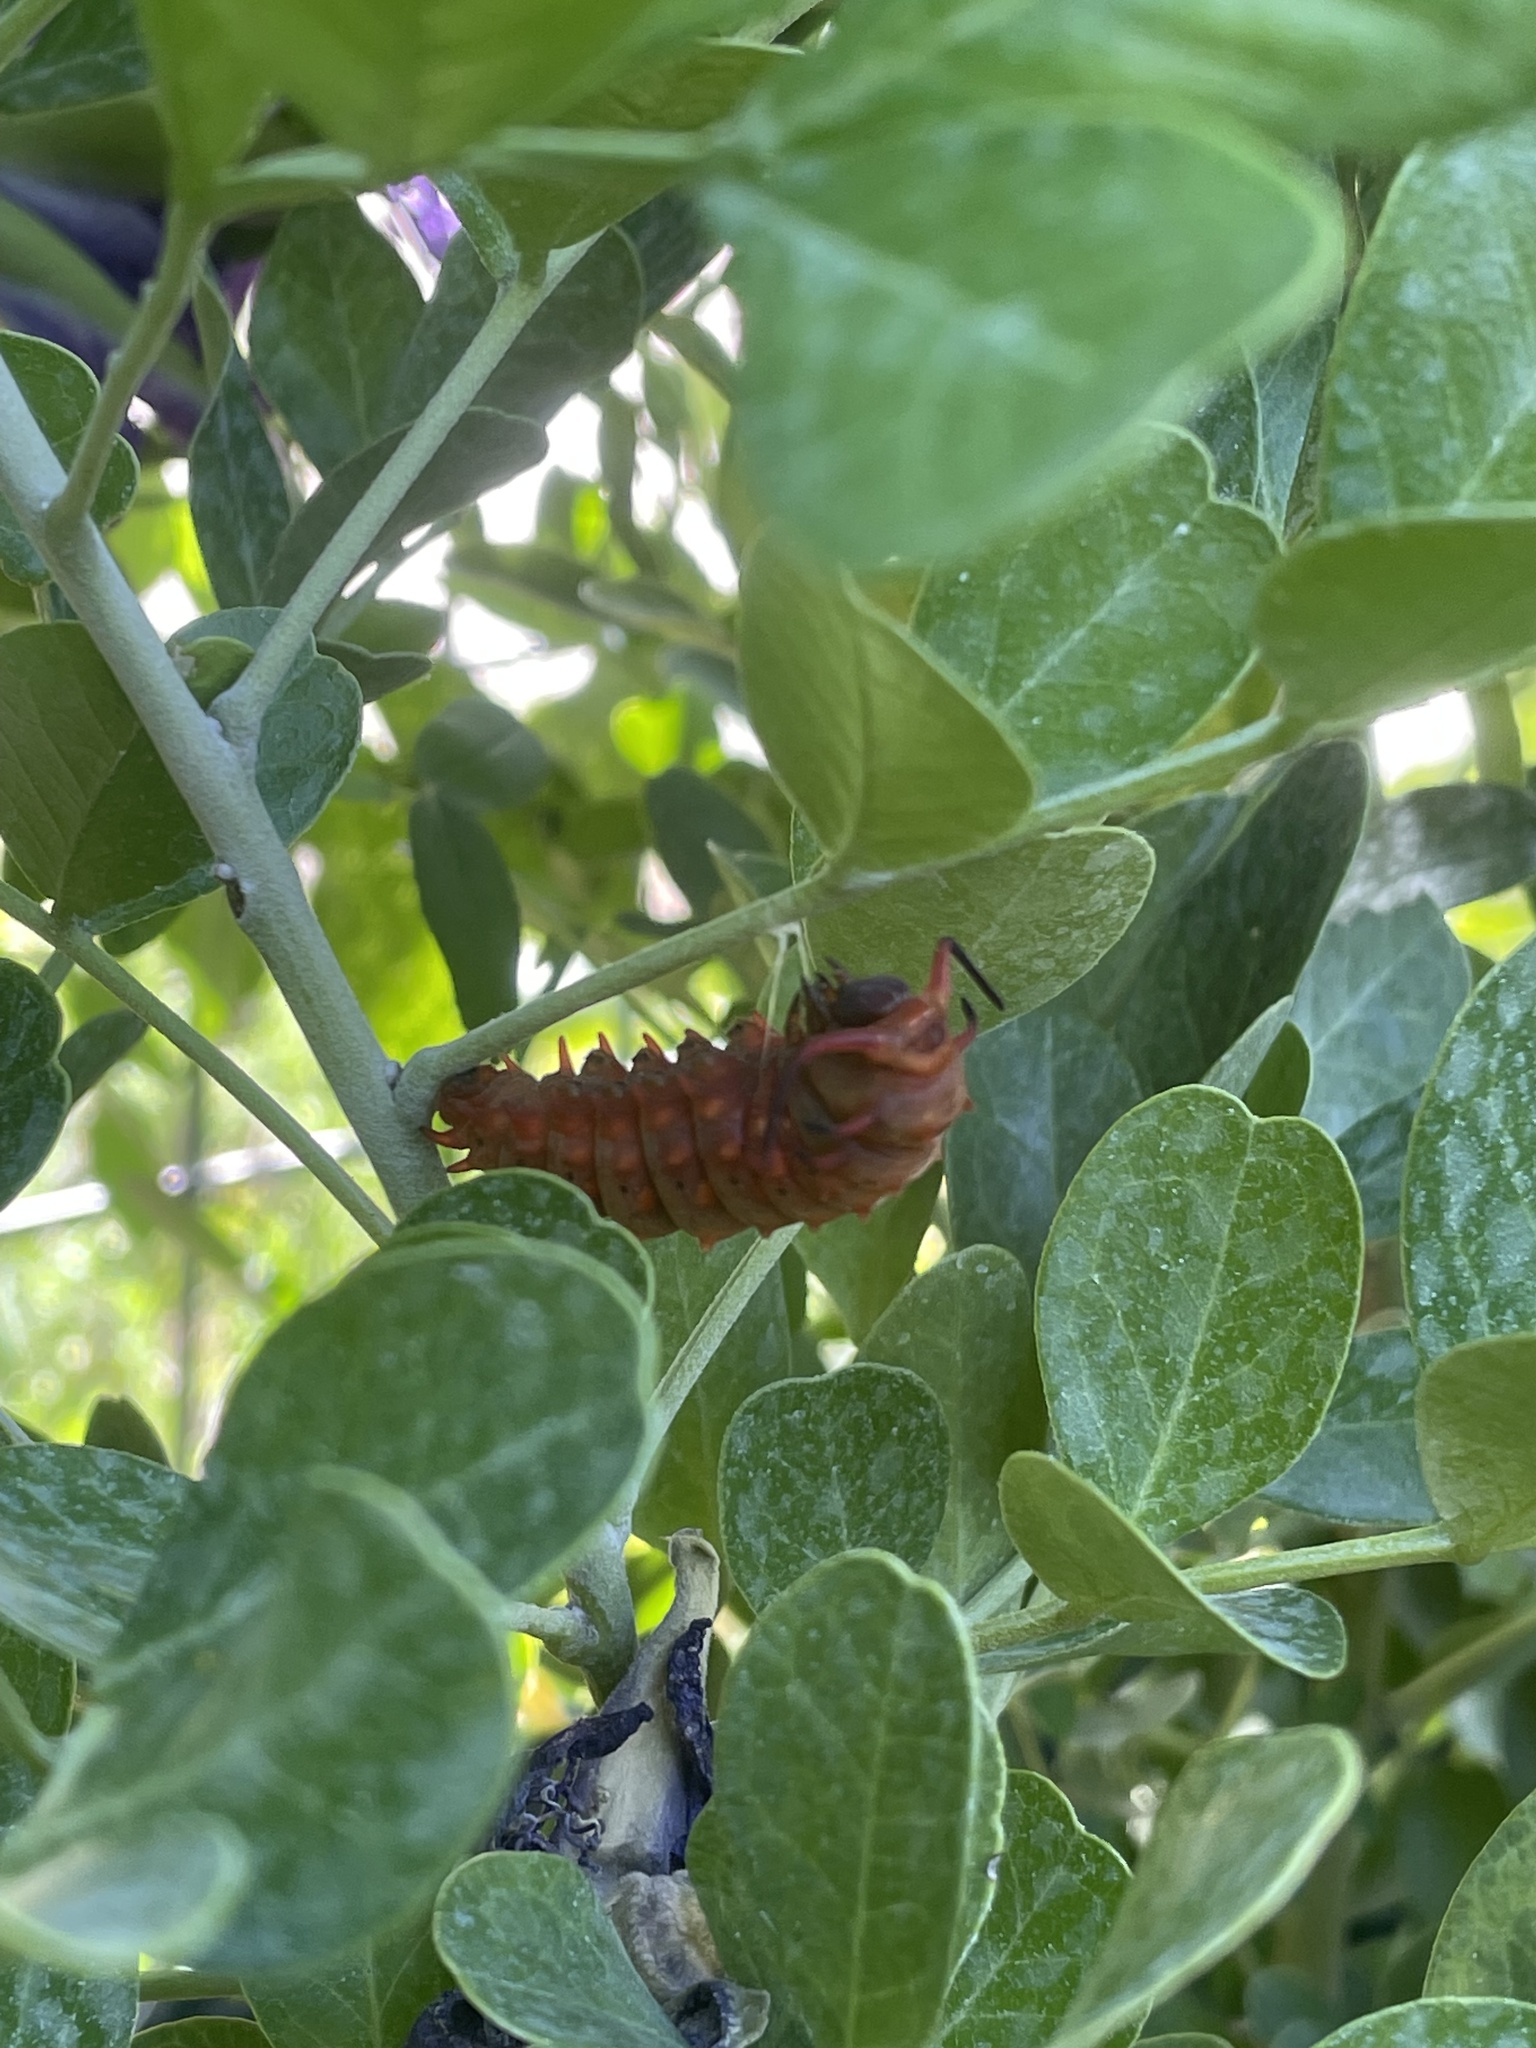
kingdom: Animalia
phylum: Arthropoda
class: Insecta
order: Lepidoptera
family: Papilionidae
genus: Battus
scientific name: Battus philenor
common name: Pipevine swallowtail
